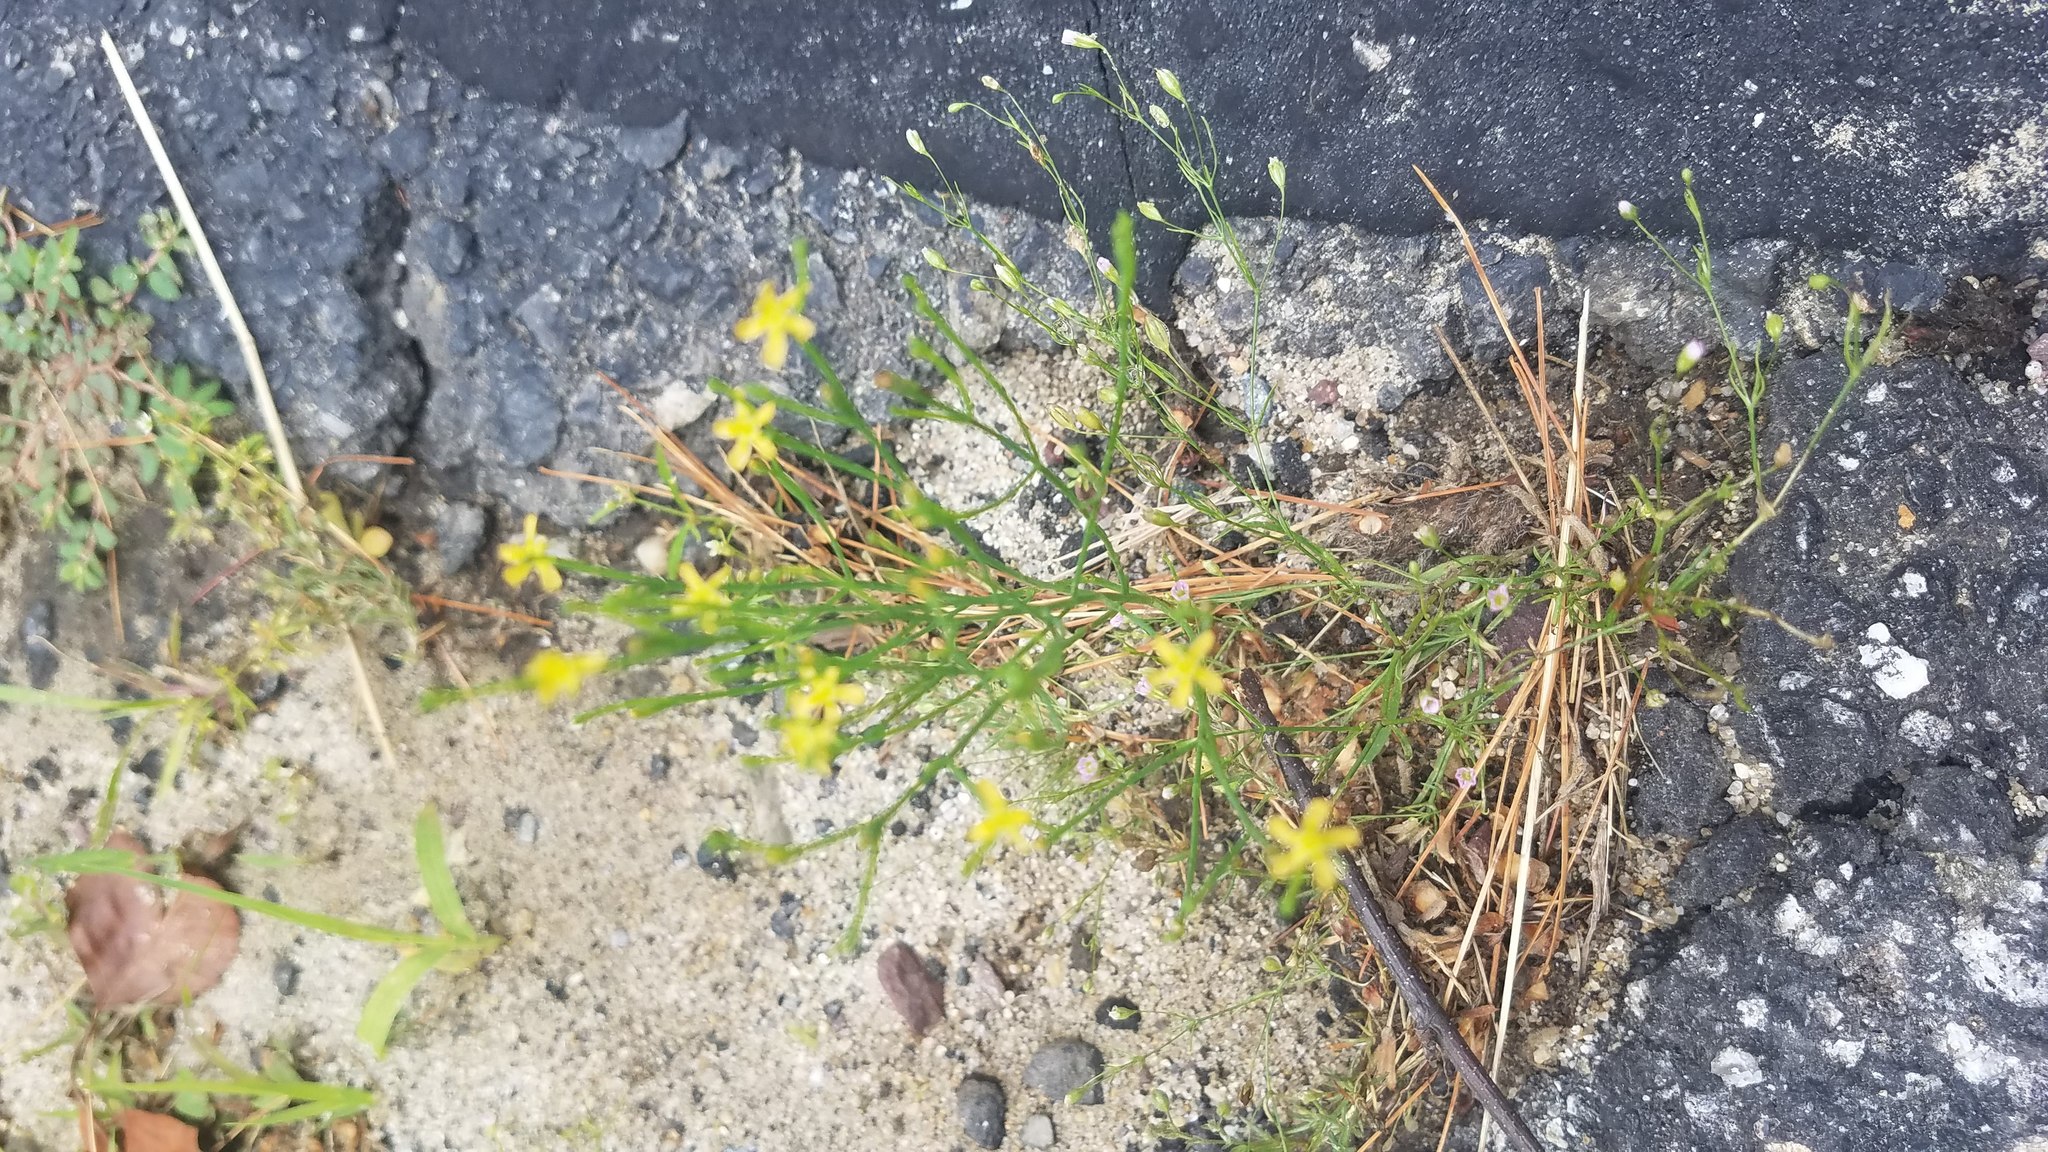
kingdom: Plantae
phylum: Tracheophyta
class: Magnoliopsida
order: Malpighiales
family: Hypericaceae
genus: Hypericum
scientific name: Hypericum gentianoides
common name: Gentian-leaved st. john's-wort
